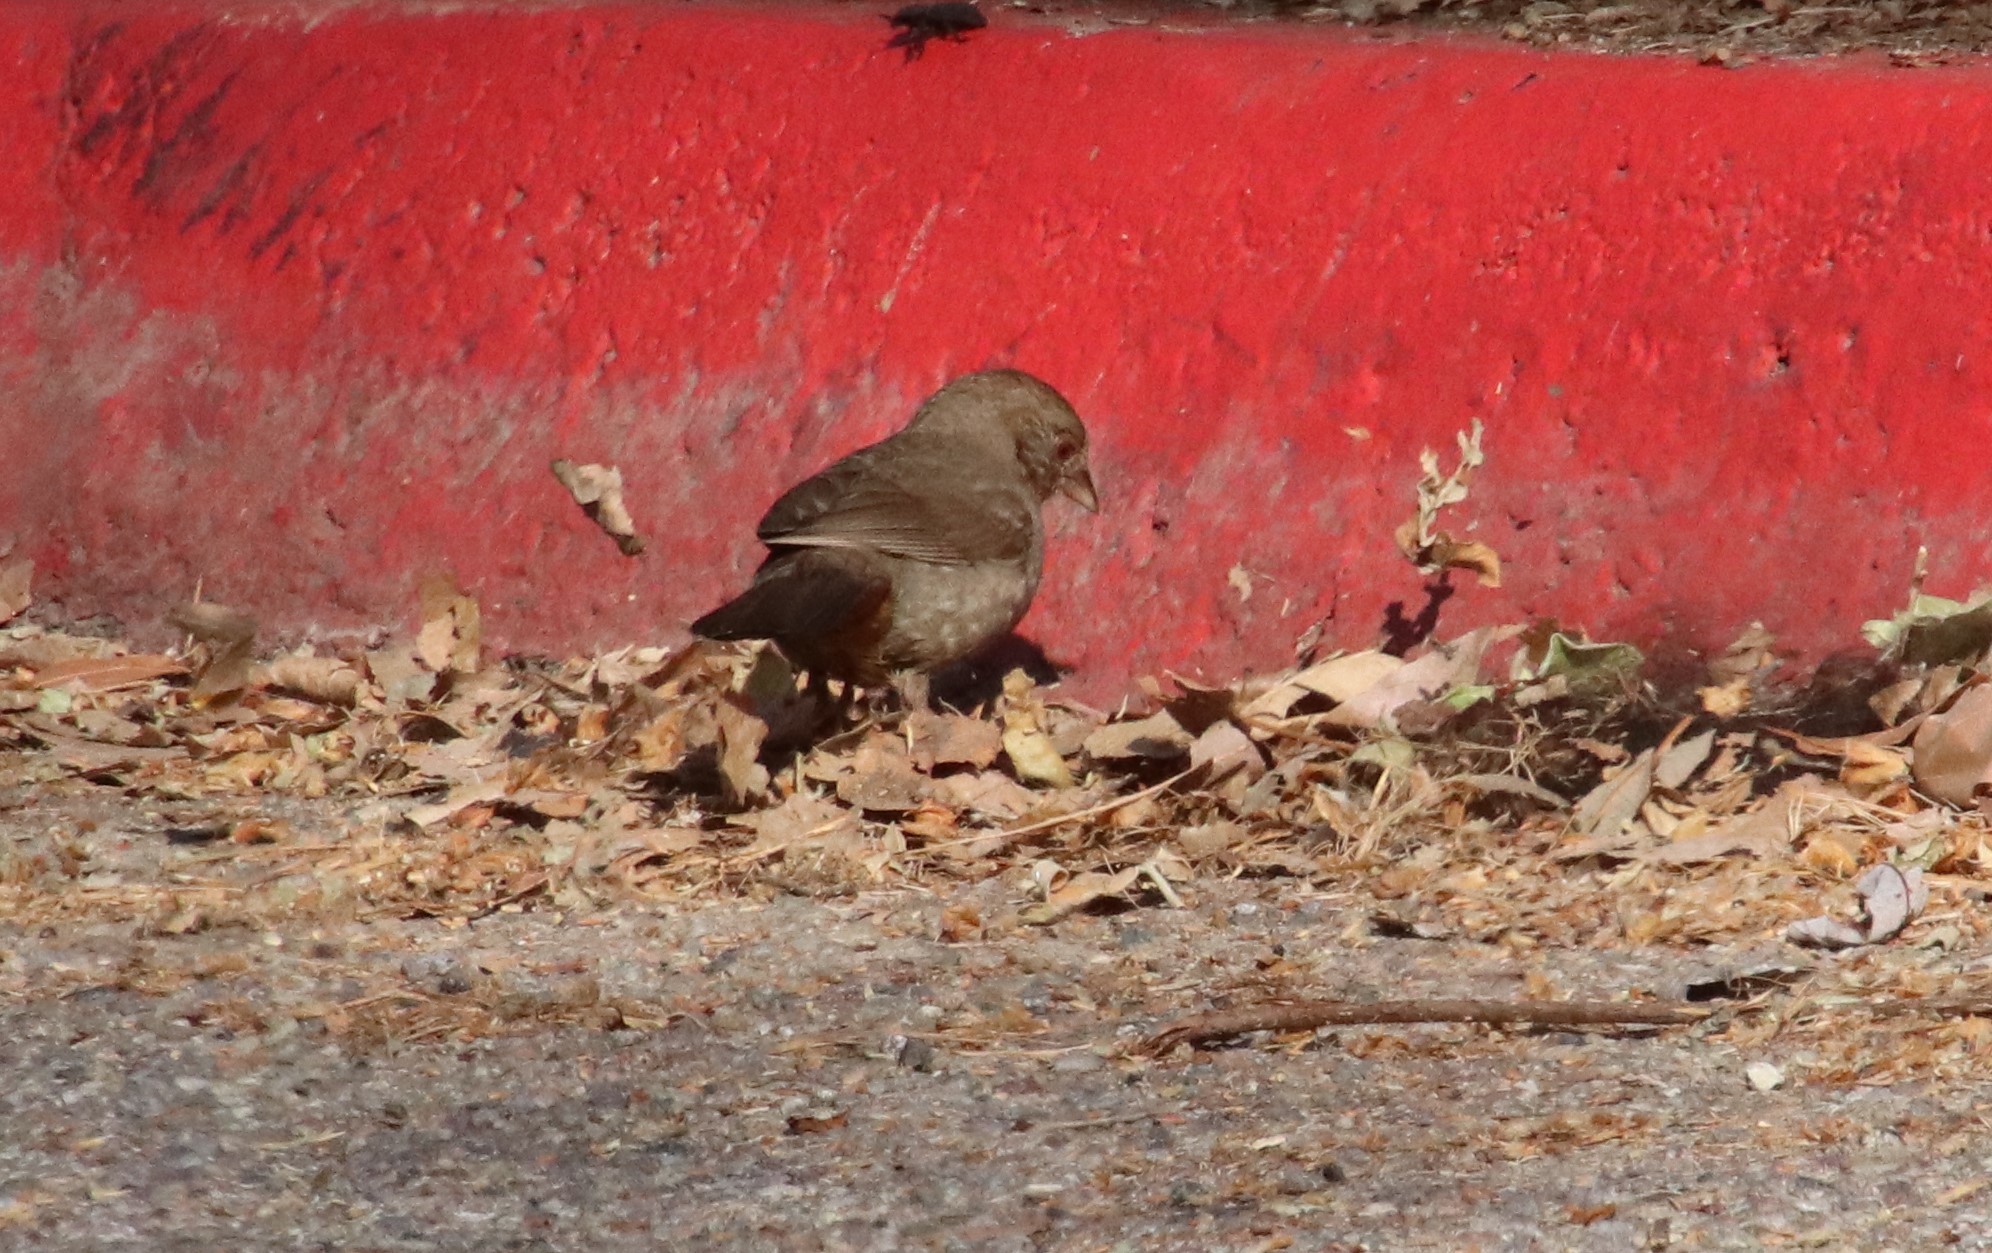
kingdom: Animalia
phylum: Chordata
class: Aves
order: Passeriformes
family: Passerellidae
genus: Melozone
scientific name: Melozone crissalis
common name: California towhee
